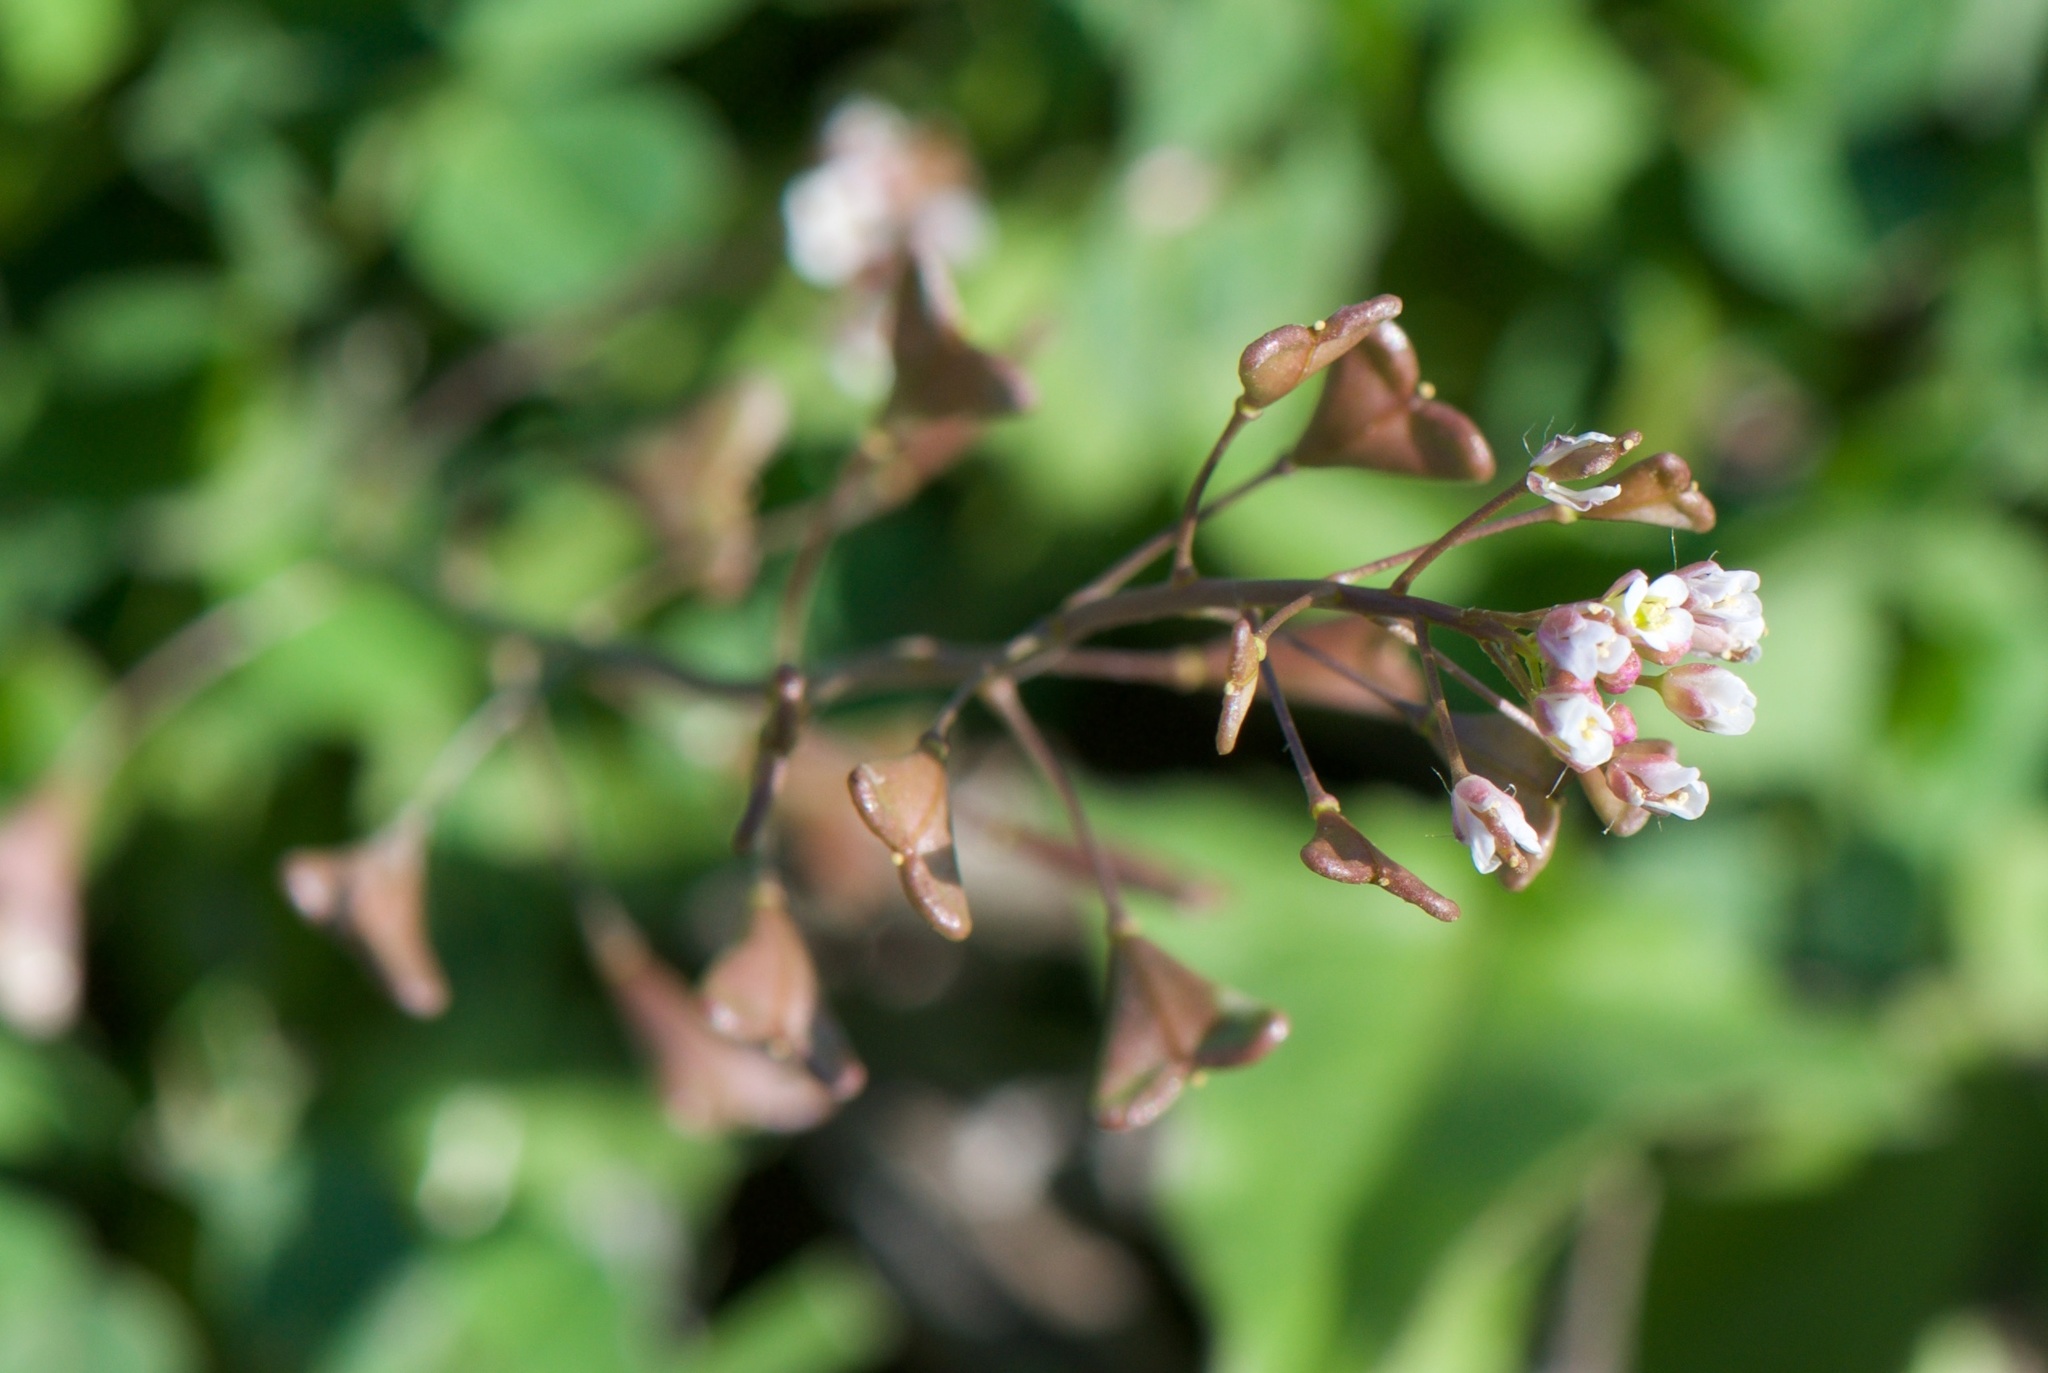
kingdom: Plantae
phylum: Tracheophyta
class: Magnoliopsida
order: Brassicales
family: Brassicaceae
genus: Capsella
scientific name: Capsella bursa-pastoris
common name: Shepherd's purse
